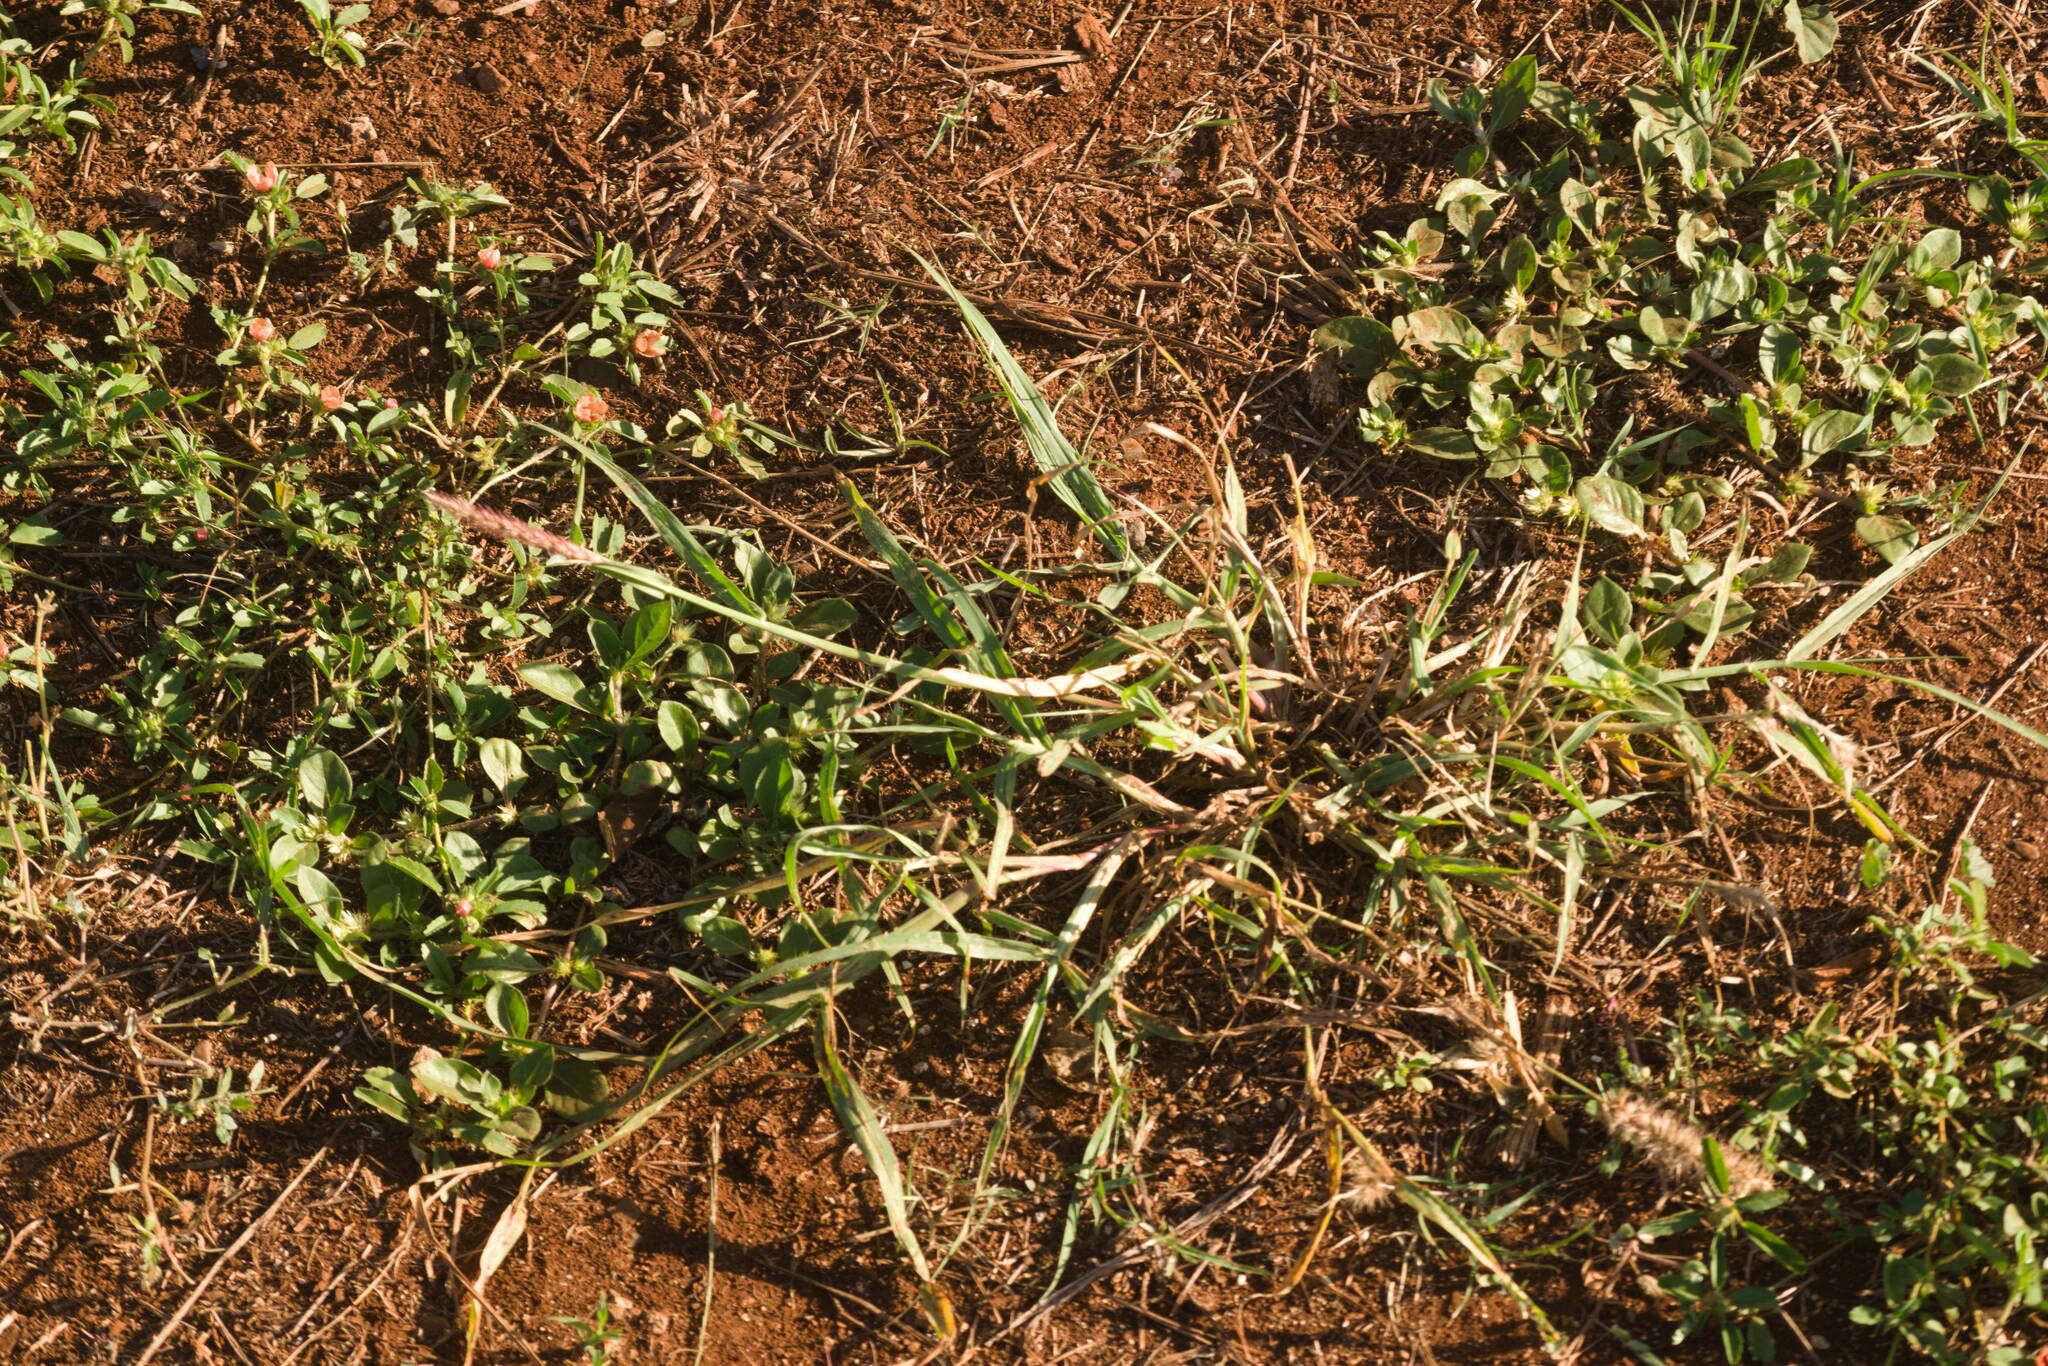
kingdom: Plantae
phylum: Tracheophyta
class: Liliopsida
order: Poales
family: Poaceae
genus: Cenchrus
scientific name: Cenchrus ciliaris
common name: Buffelgrass
